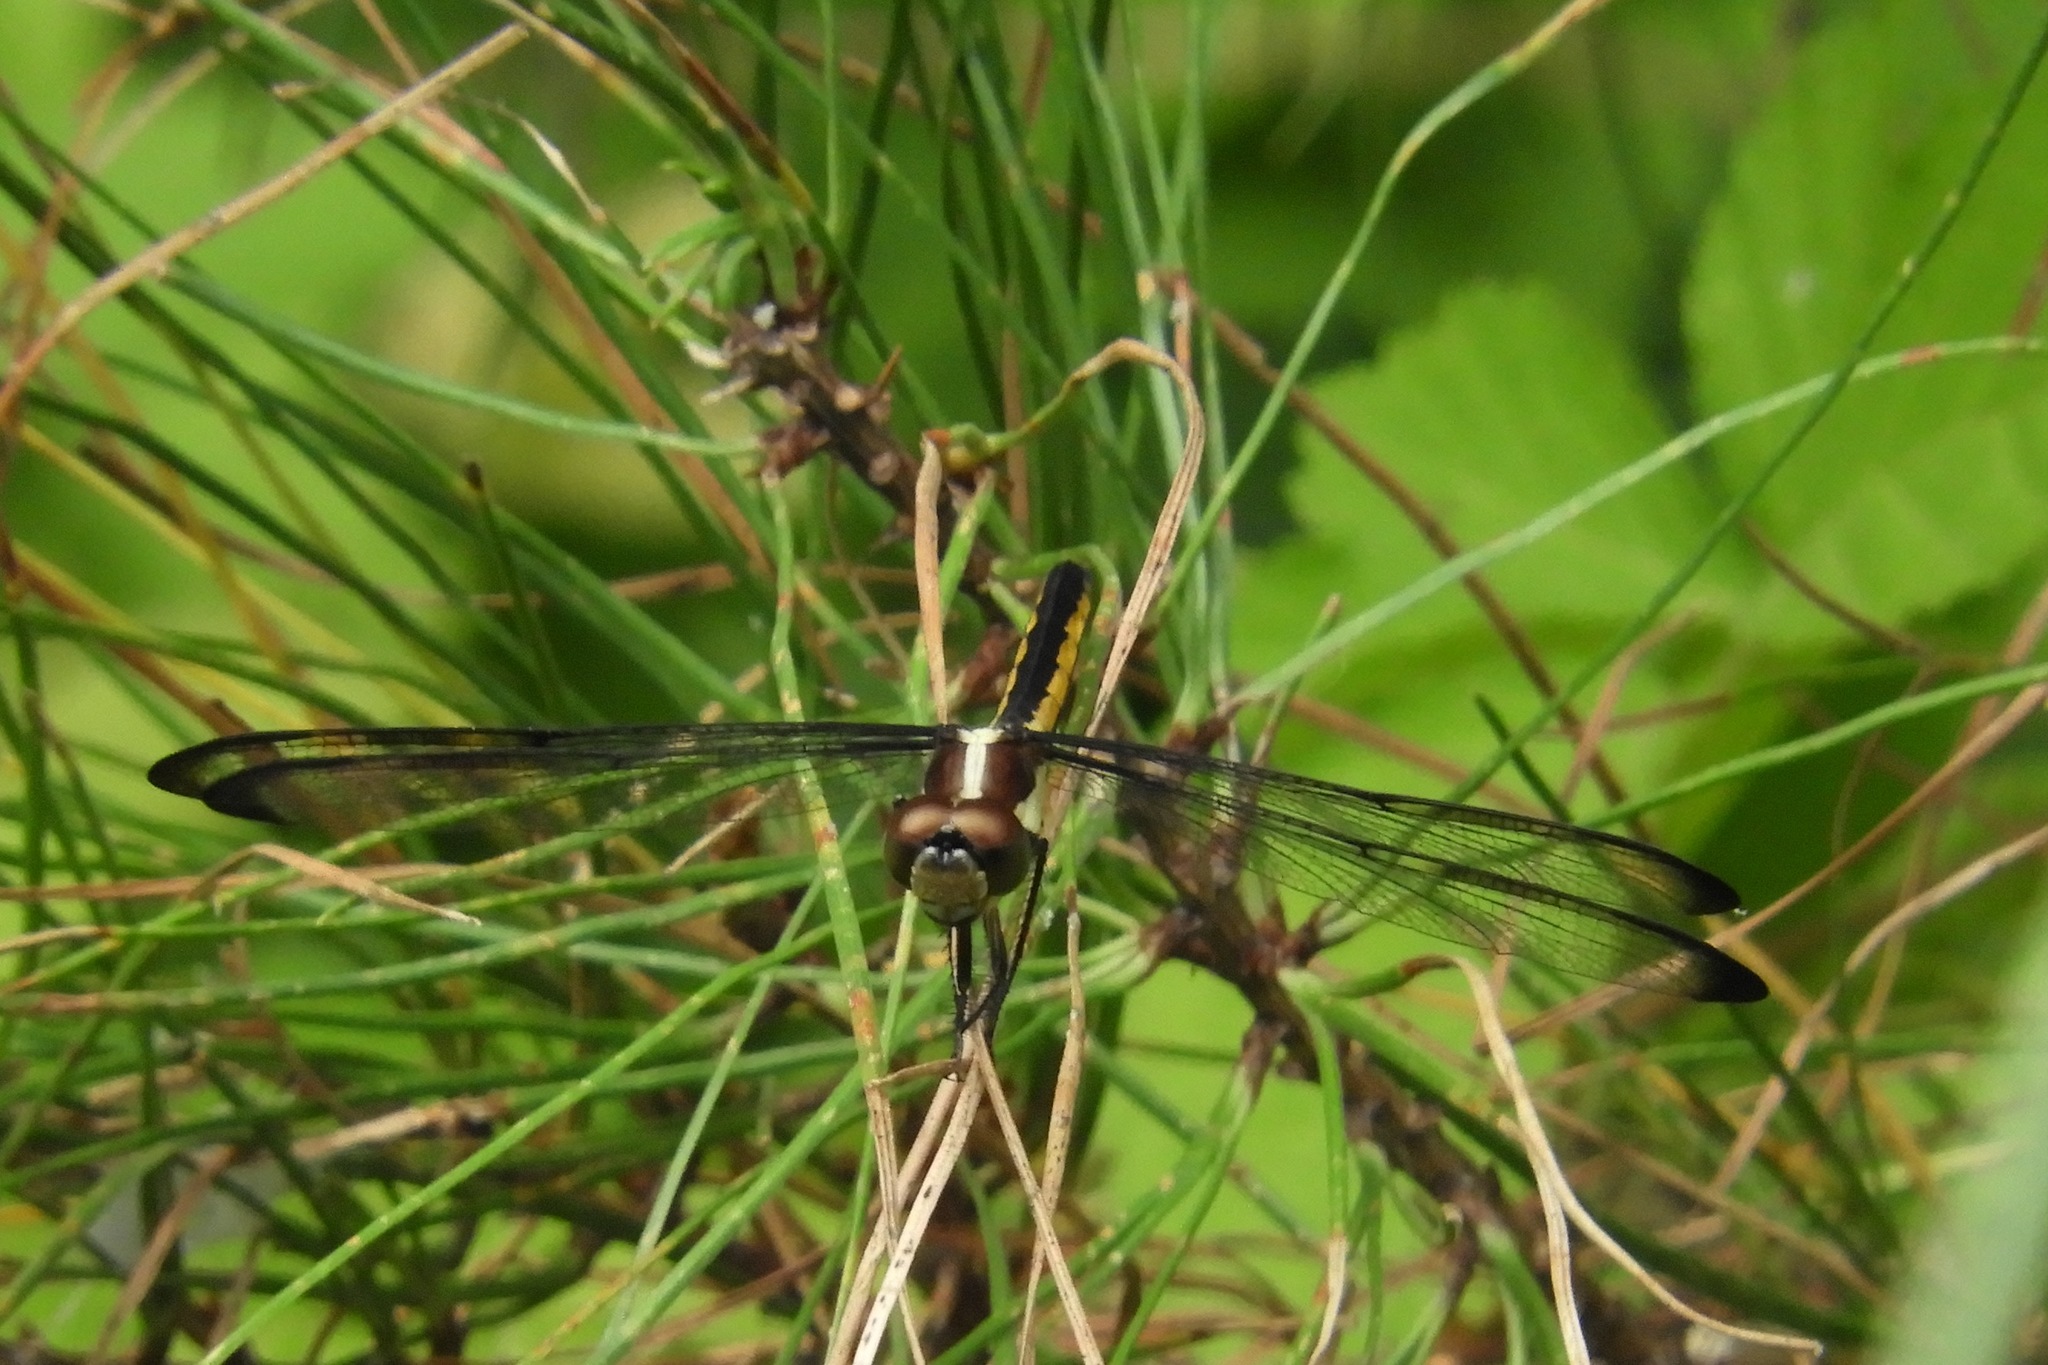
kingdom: Animalia
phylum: Arthropoda
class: Insecta
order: Odonata
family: Libellulidae
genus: Libellula
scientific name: Libellula incesta
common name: Slaty skimmer
